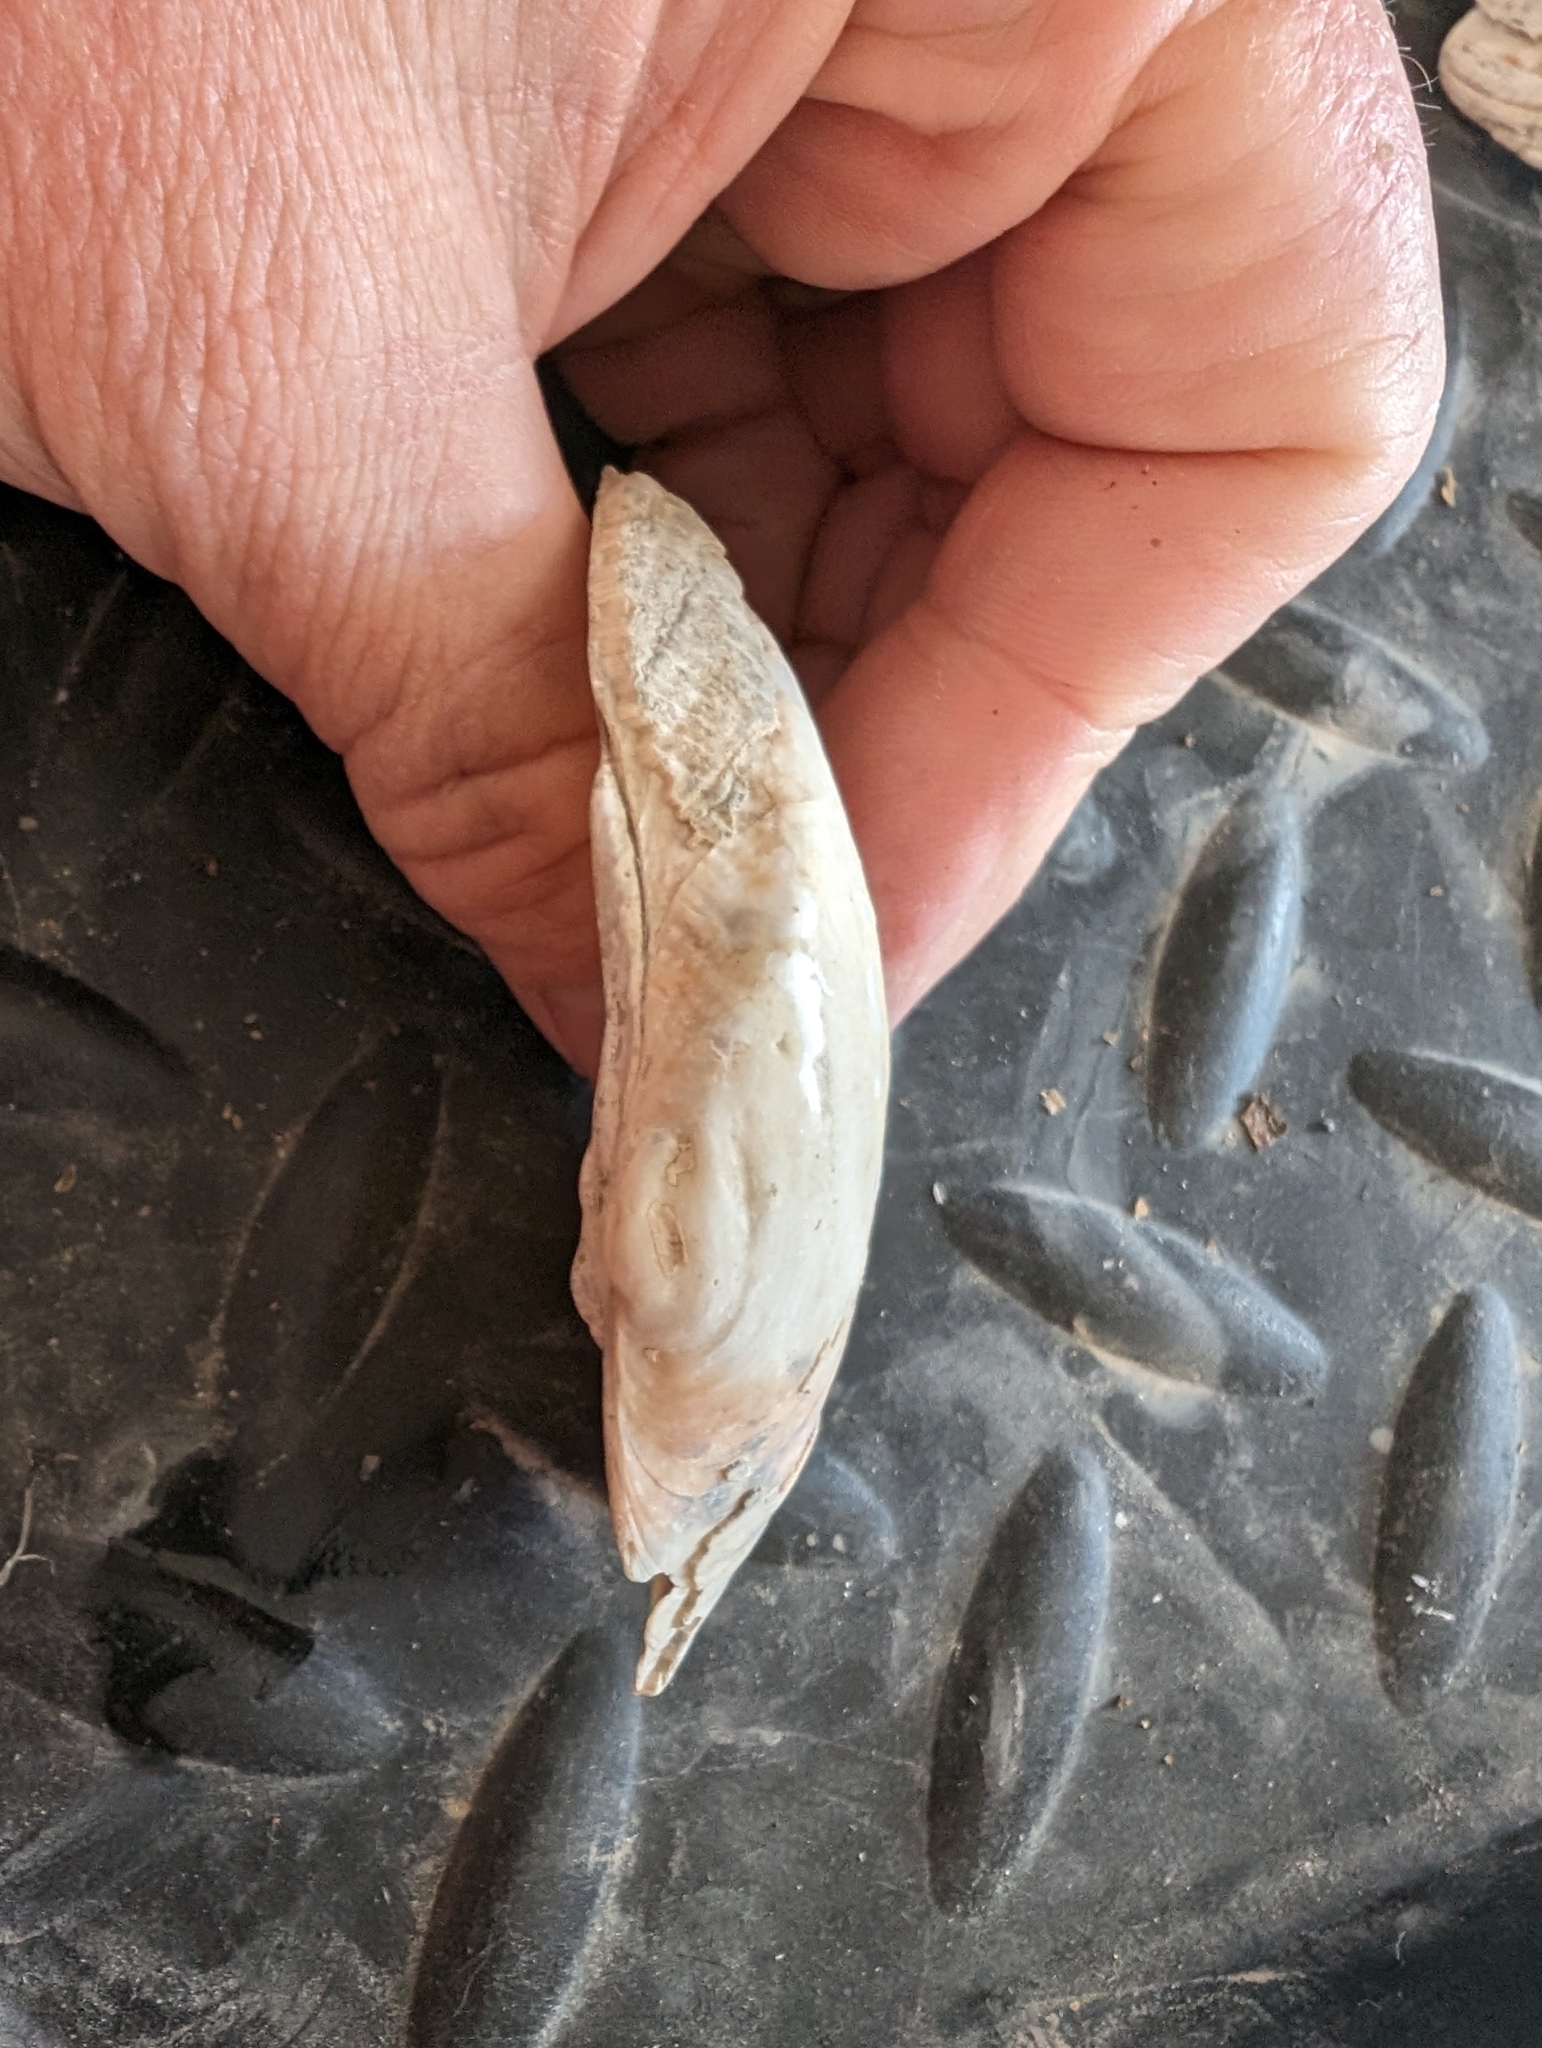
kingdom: Animalia
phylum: Mollusca
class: Bivalvia
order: Unionida
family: Unionidae
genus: Alasmidonta
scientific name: Alasmidonta marginata
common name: Elktoe
